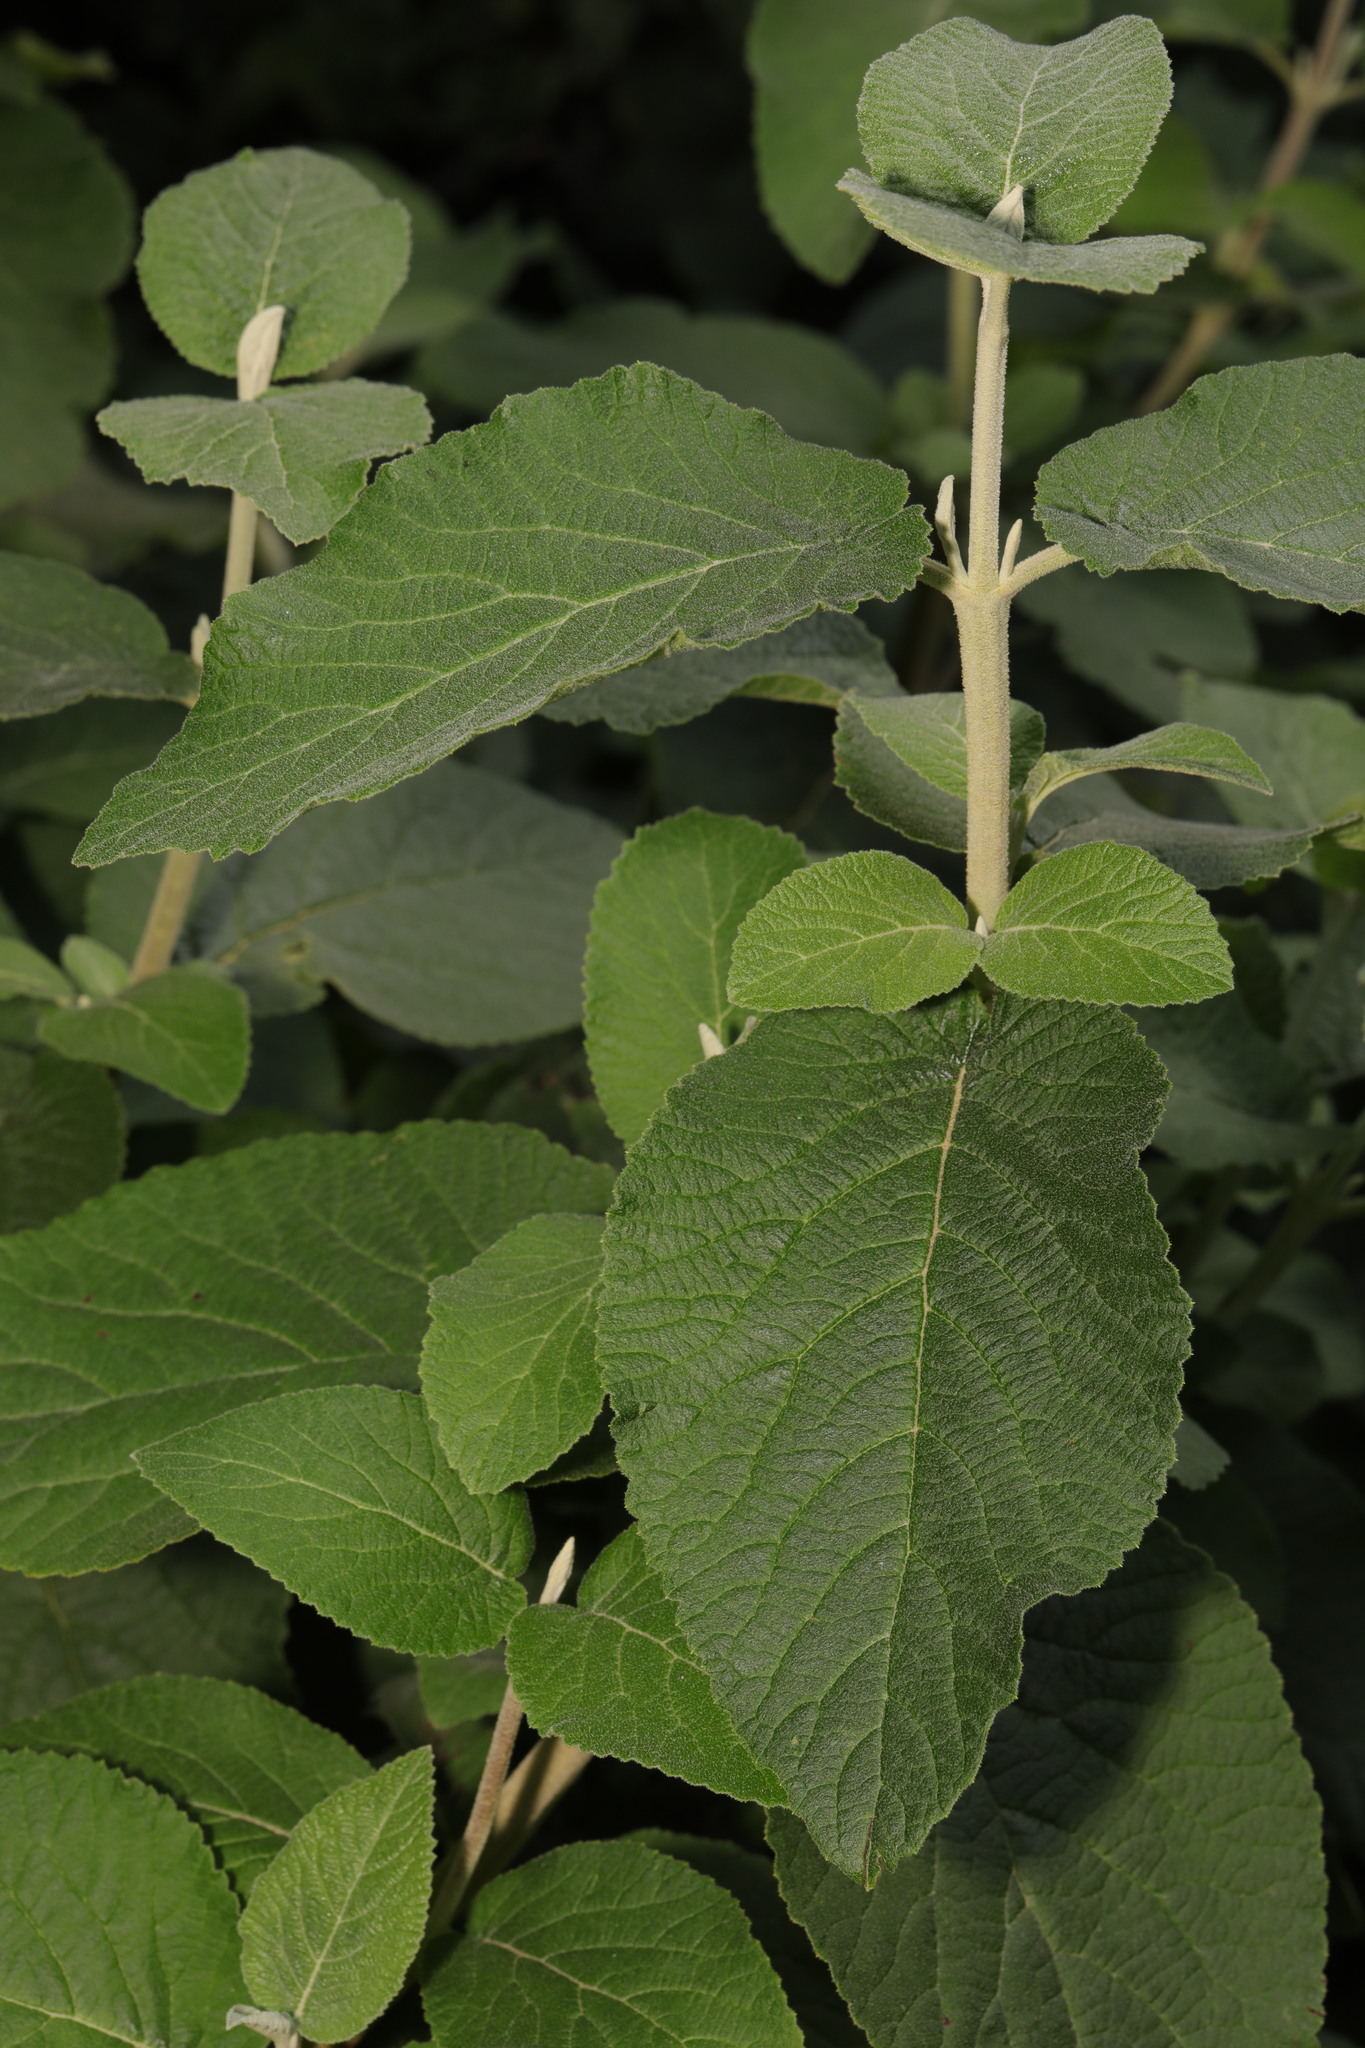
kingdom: Plantae
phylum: Tracheophyta
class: Magnoliopsida
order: Dipsacales
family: Viburnaceae
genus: Viburnum
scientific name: Viburnum lantana
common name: Wayfaring tree
